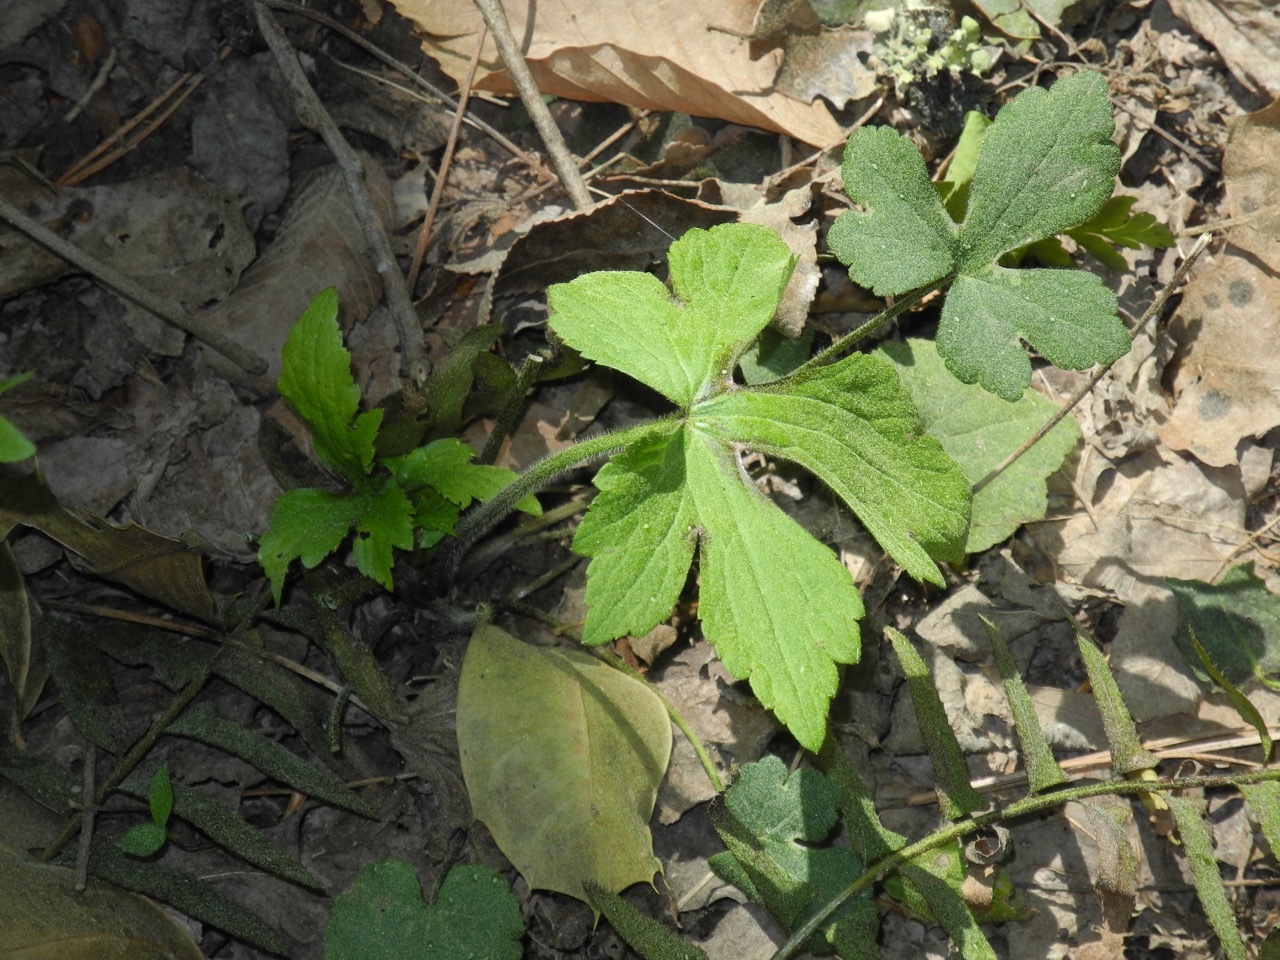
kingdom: Plantae
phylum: Tracheophyta
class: Magnoliopsida
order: Ranunculales
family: Ranunculaceae
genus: Ranunculus
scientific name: Ranunculus repens
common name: Creeping buttercup
